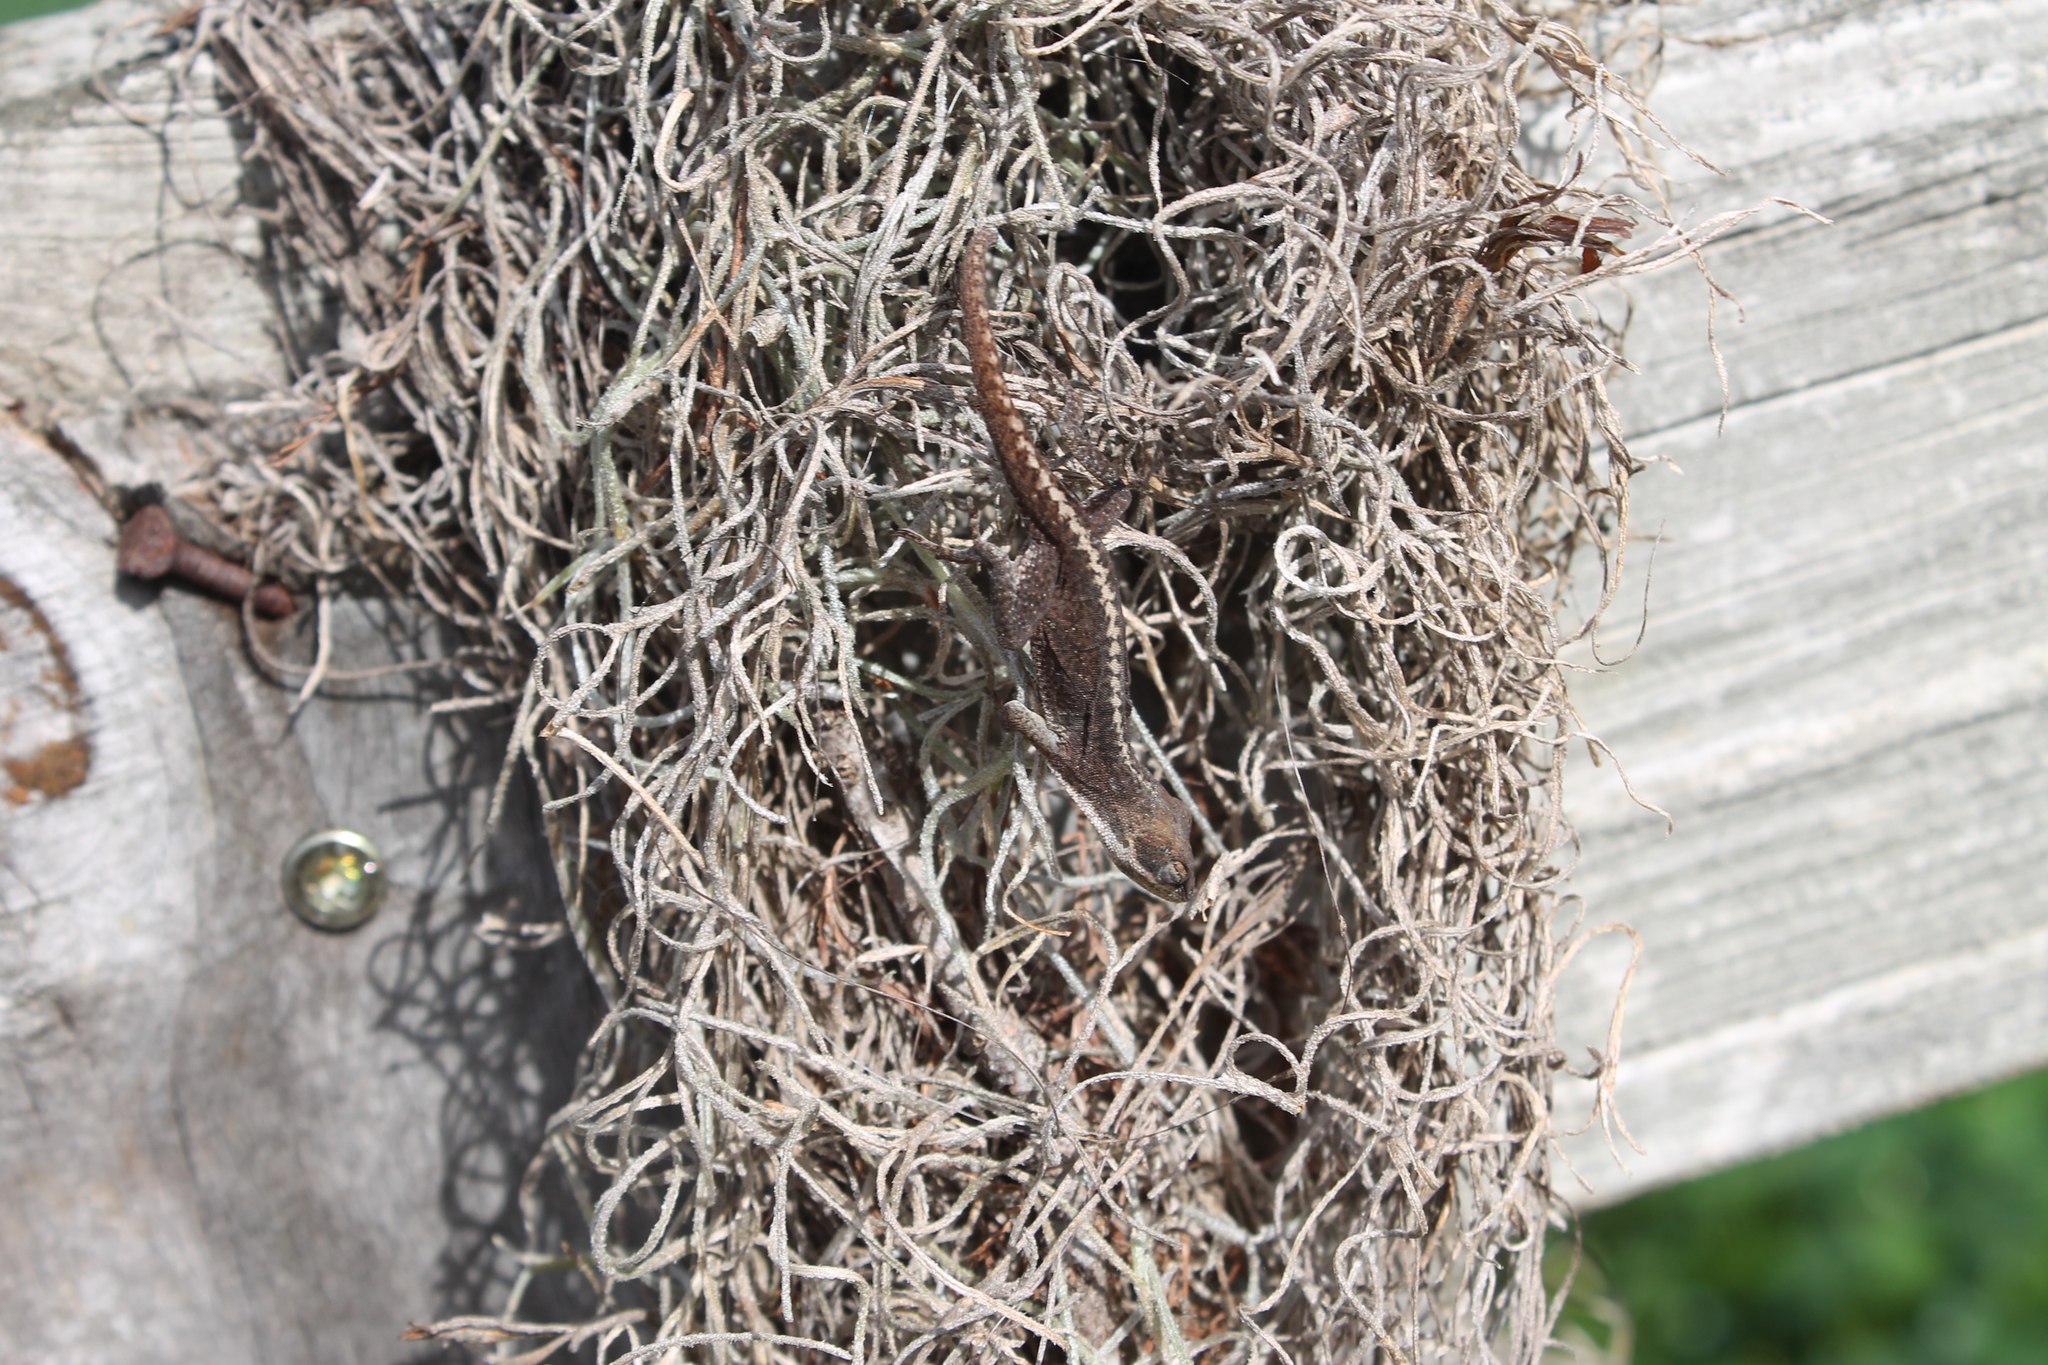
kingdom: Animalia
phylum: Chordata
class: Squamata
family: Dactyloidae
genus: Anolis
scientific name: Anolis carolinensis
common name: Green anole
